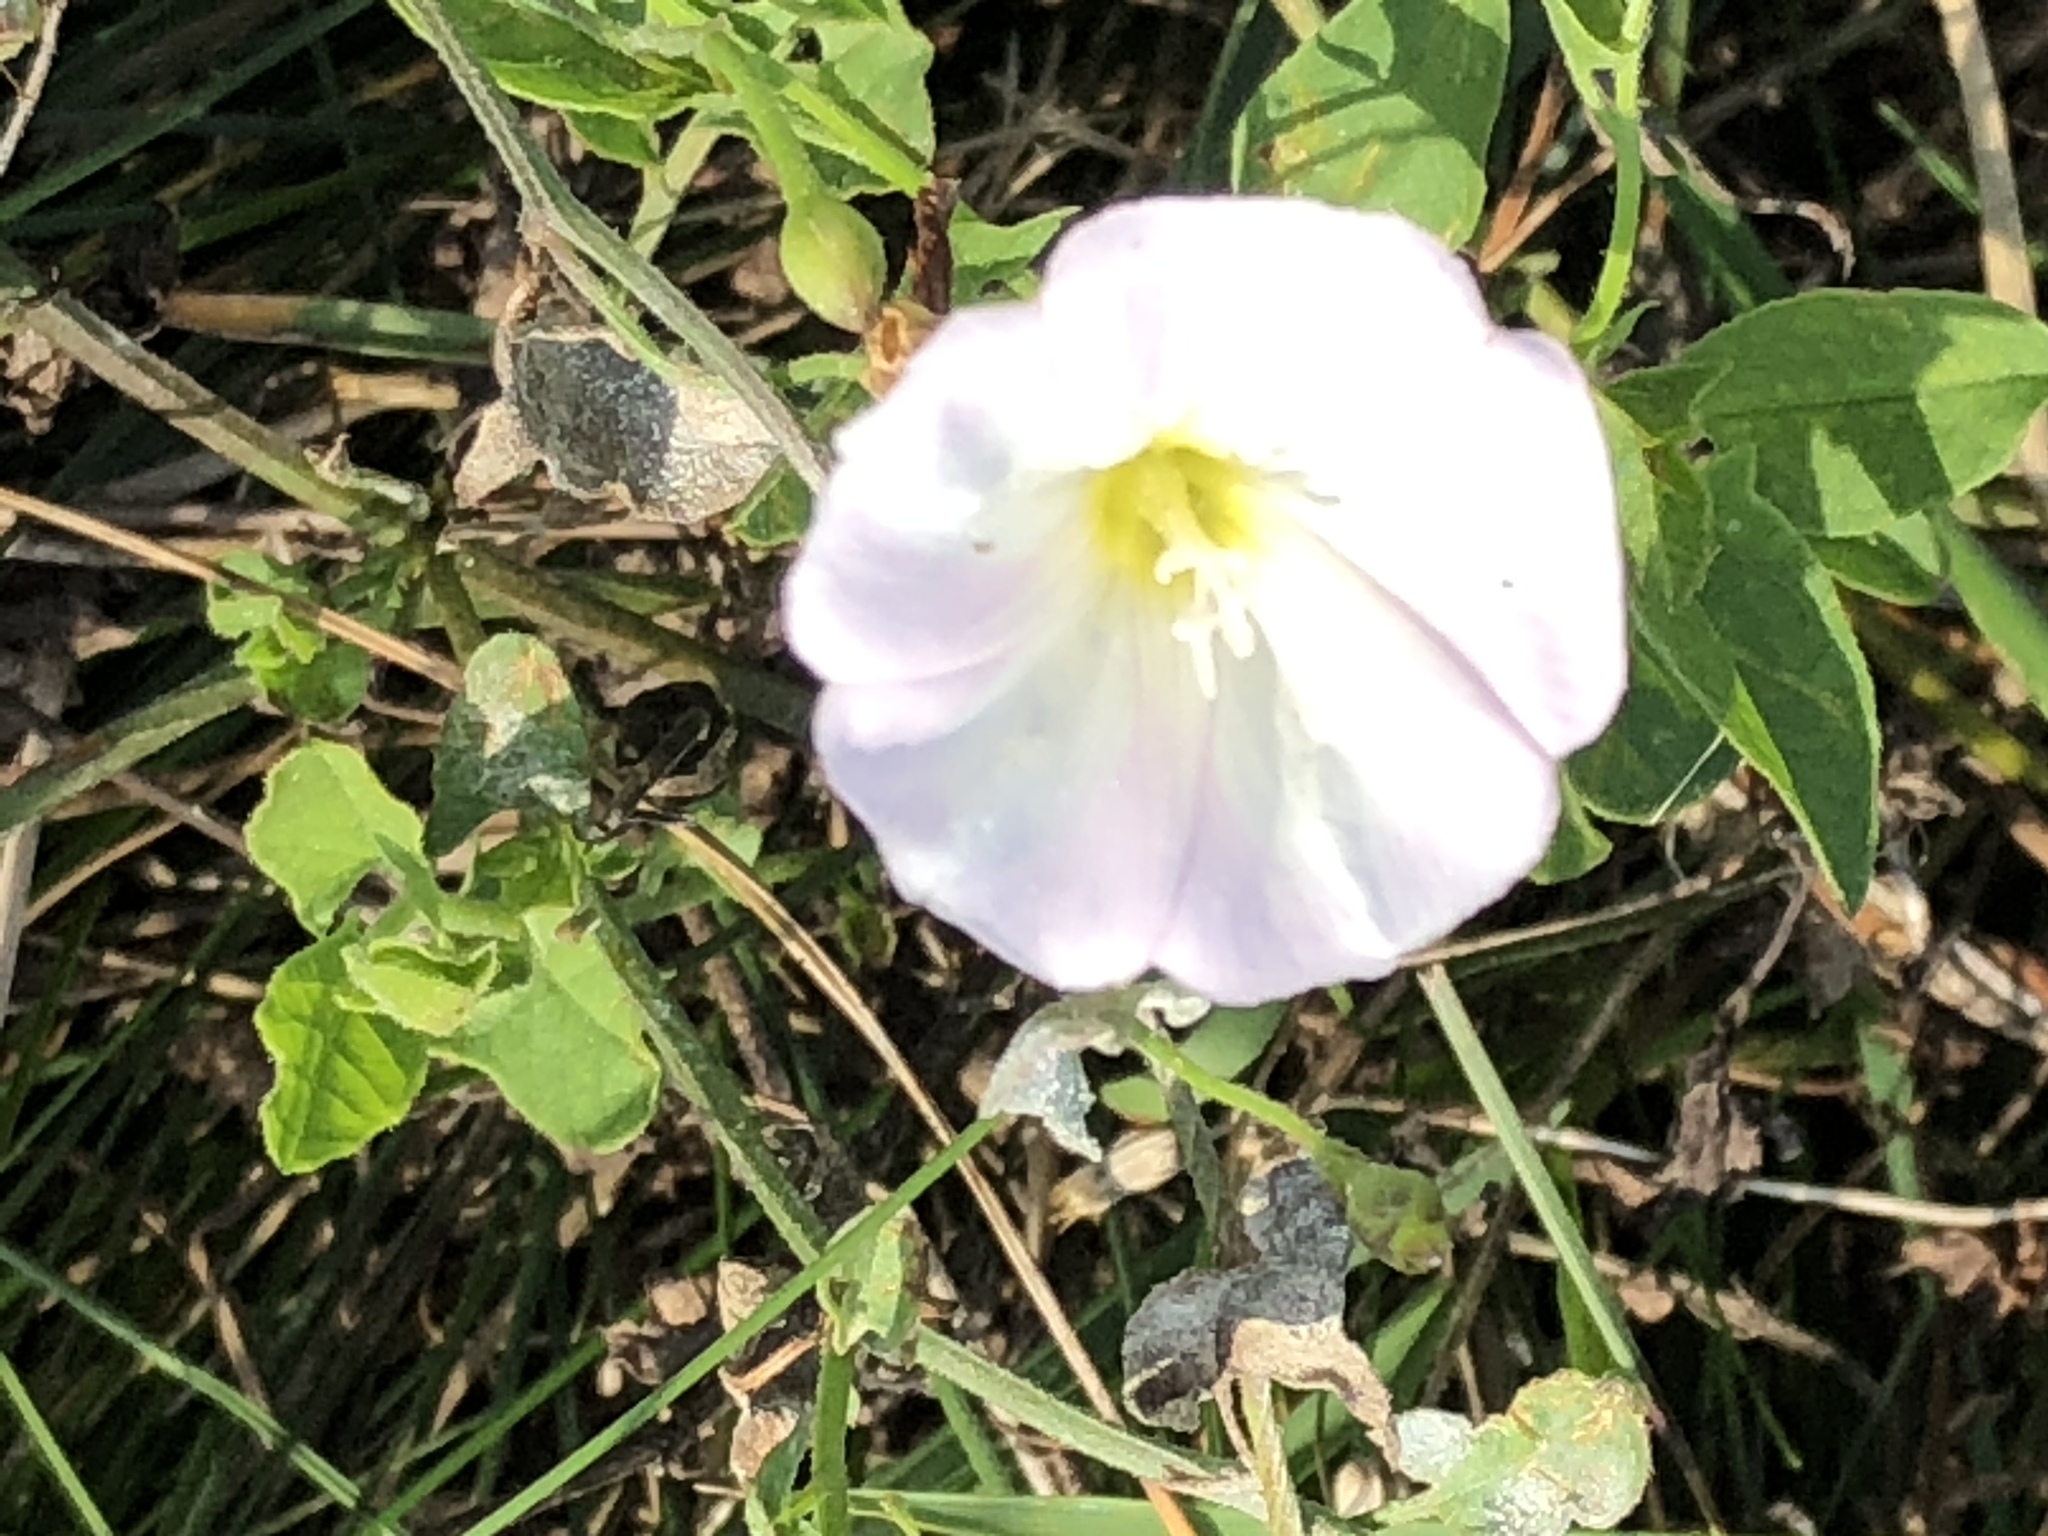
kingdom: Plantae
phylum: Tracheophyta
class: Magnoliopsida
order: Solanales
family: Convolvulaceae
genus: Convolvulus
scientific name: Convolvulus arvensis
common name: Field bindweed
